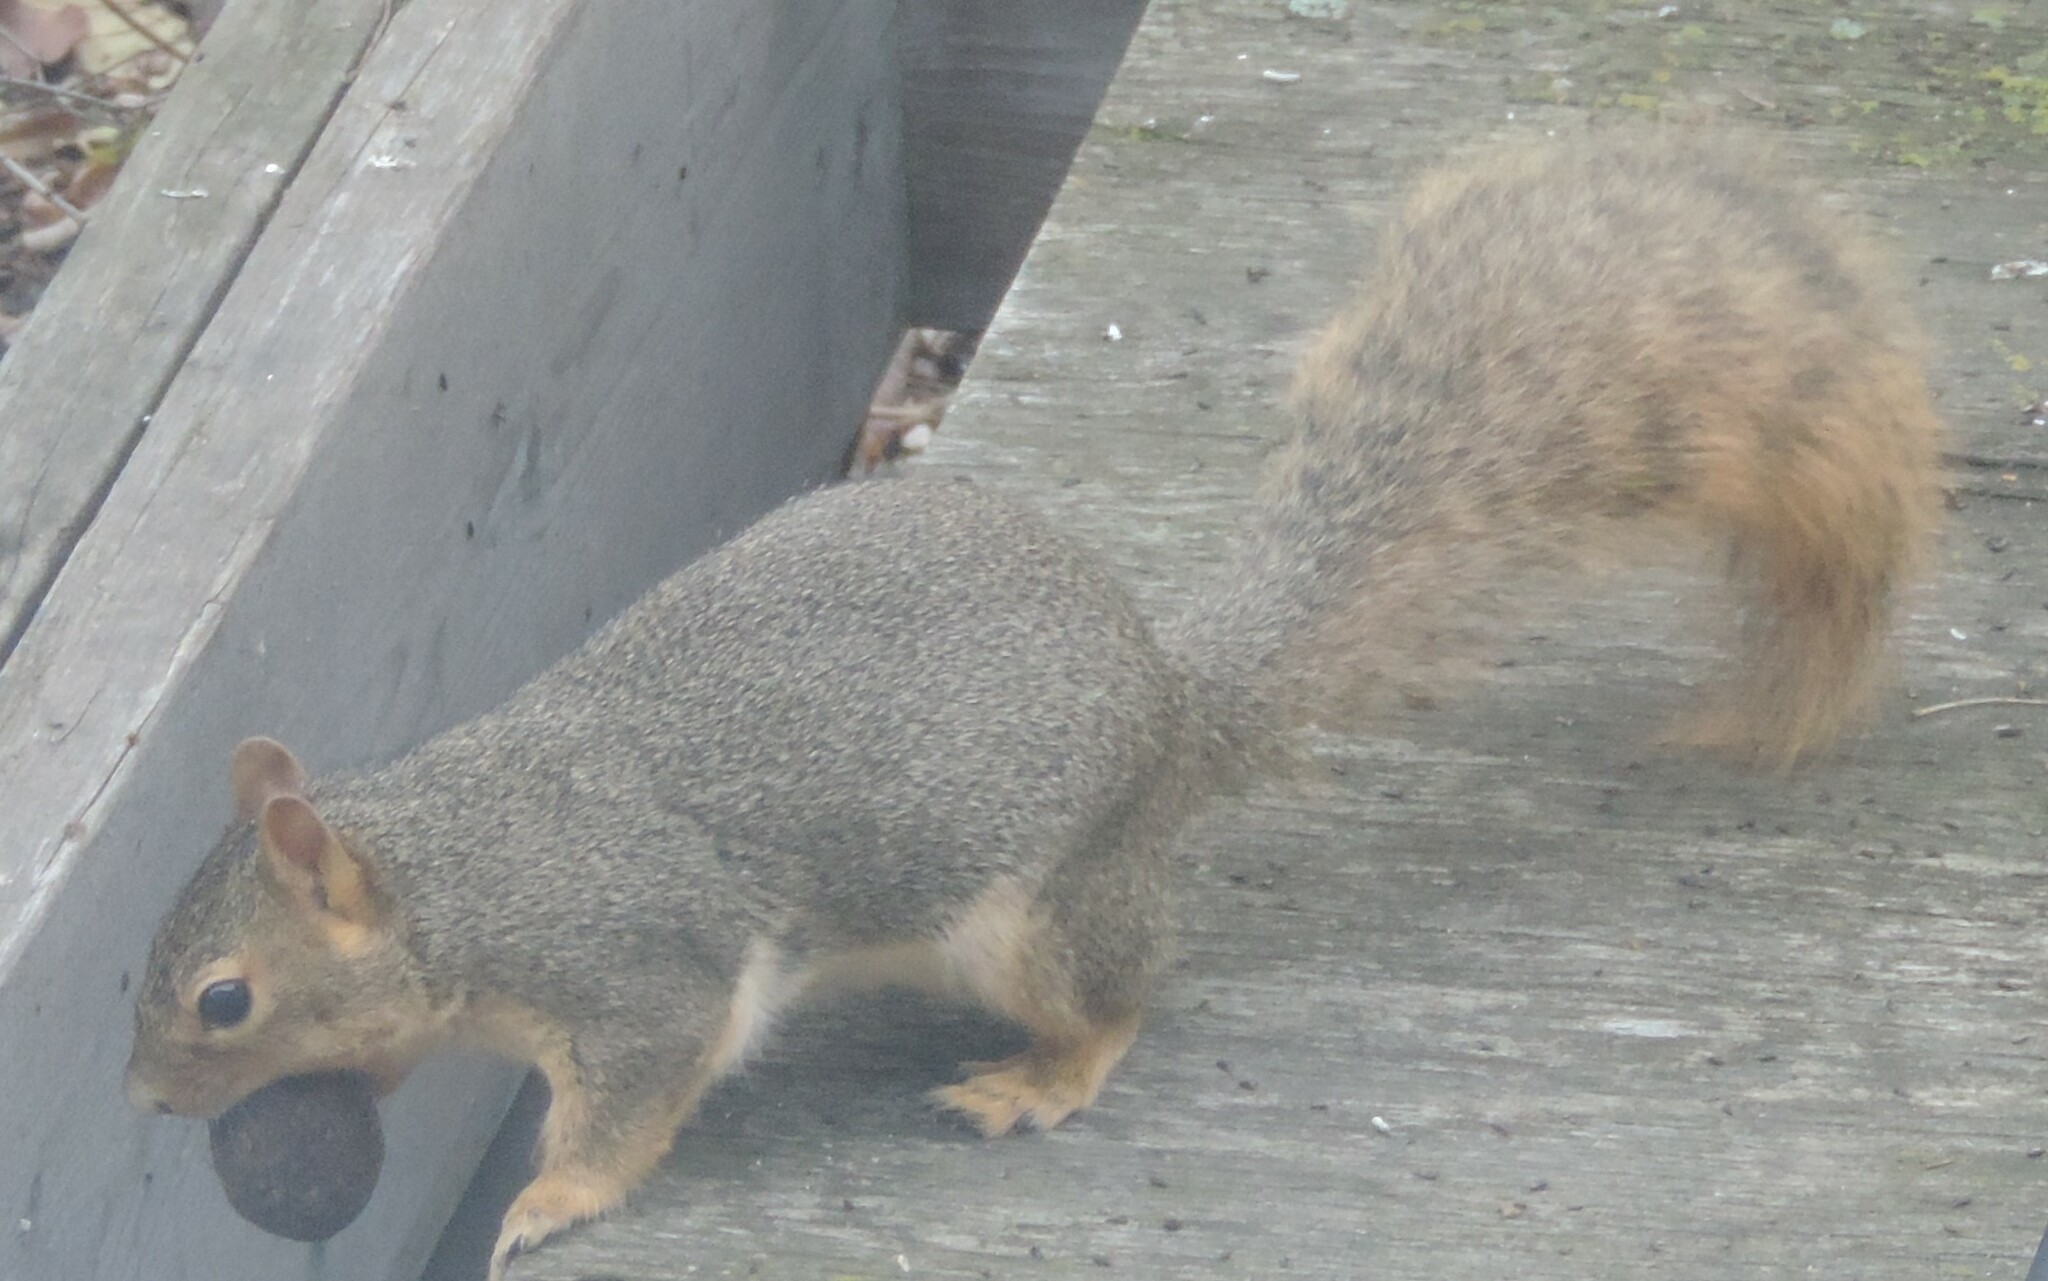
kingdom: Animalia
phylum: Chordata
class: Mammalia
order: Rodentia
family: Sciuridae
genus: Sciurus
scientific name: Sciurus niger
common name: Fox squirrel
